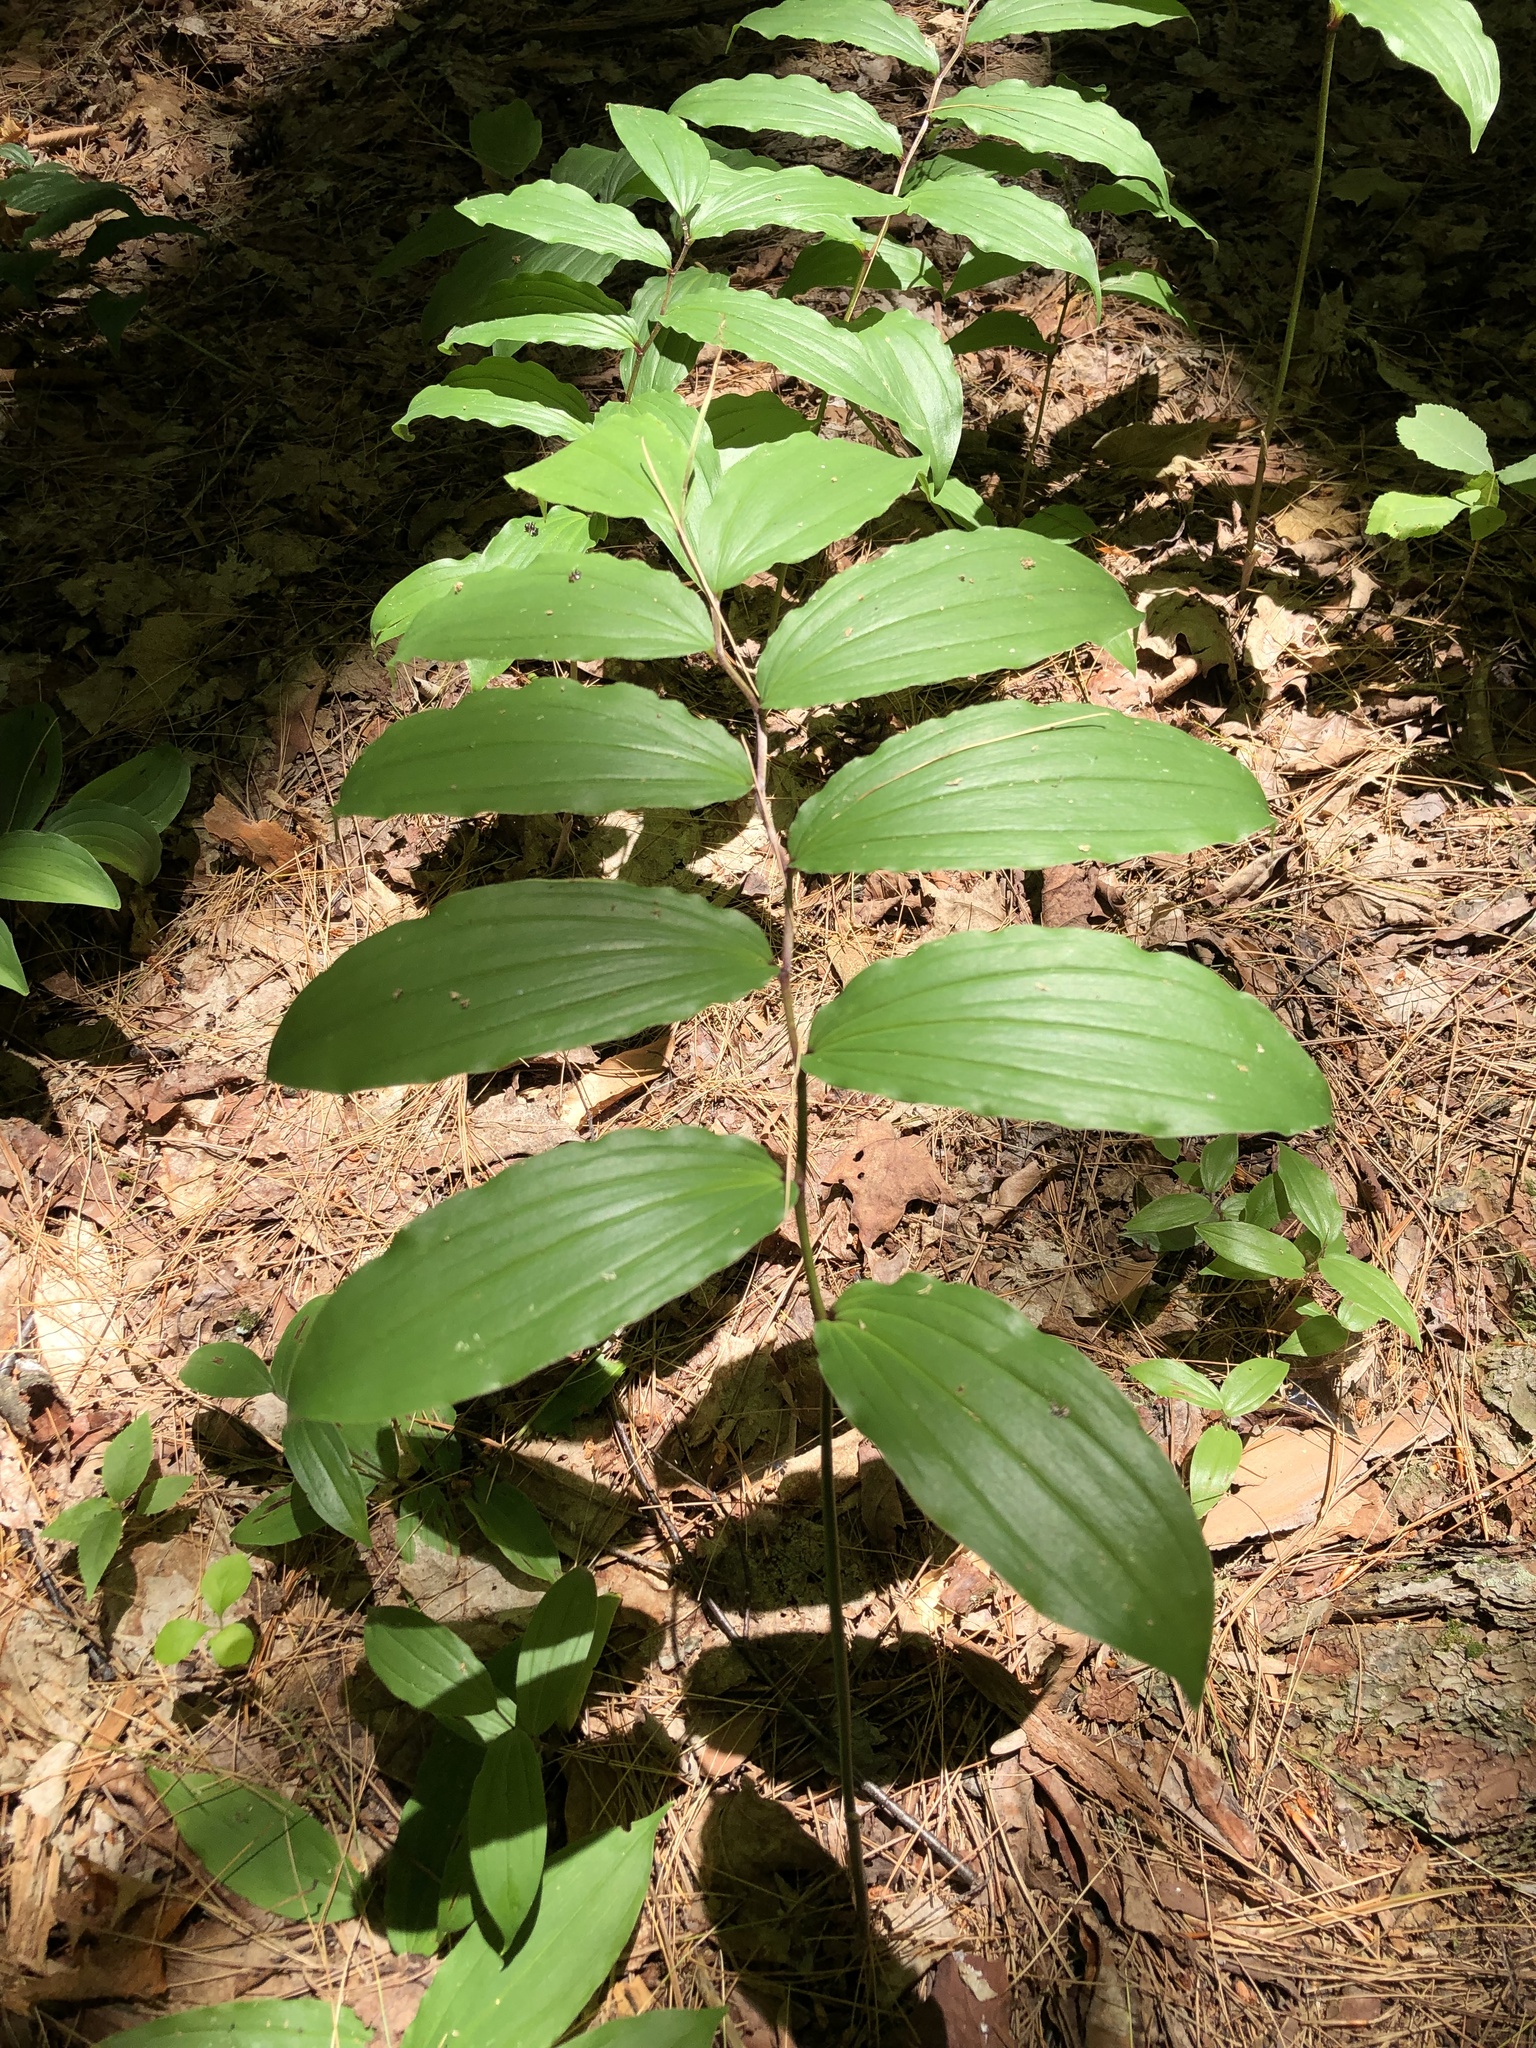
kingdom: Plantae
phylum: Tracheophyta
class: Liliopsida
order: Asparagales
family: Asparagaceae
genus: Maianthemum
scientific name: Maianthemum racemosum
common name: False spikenard
